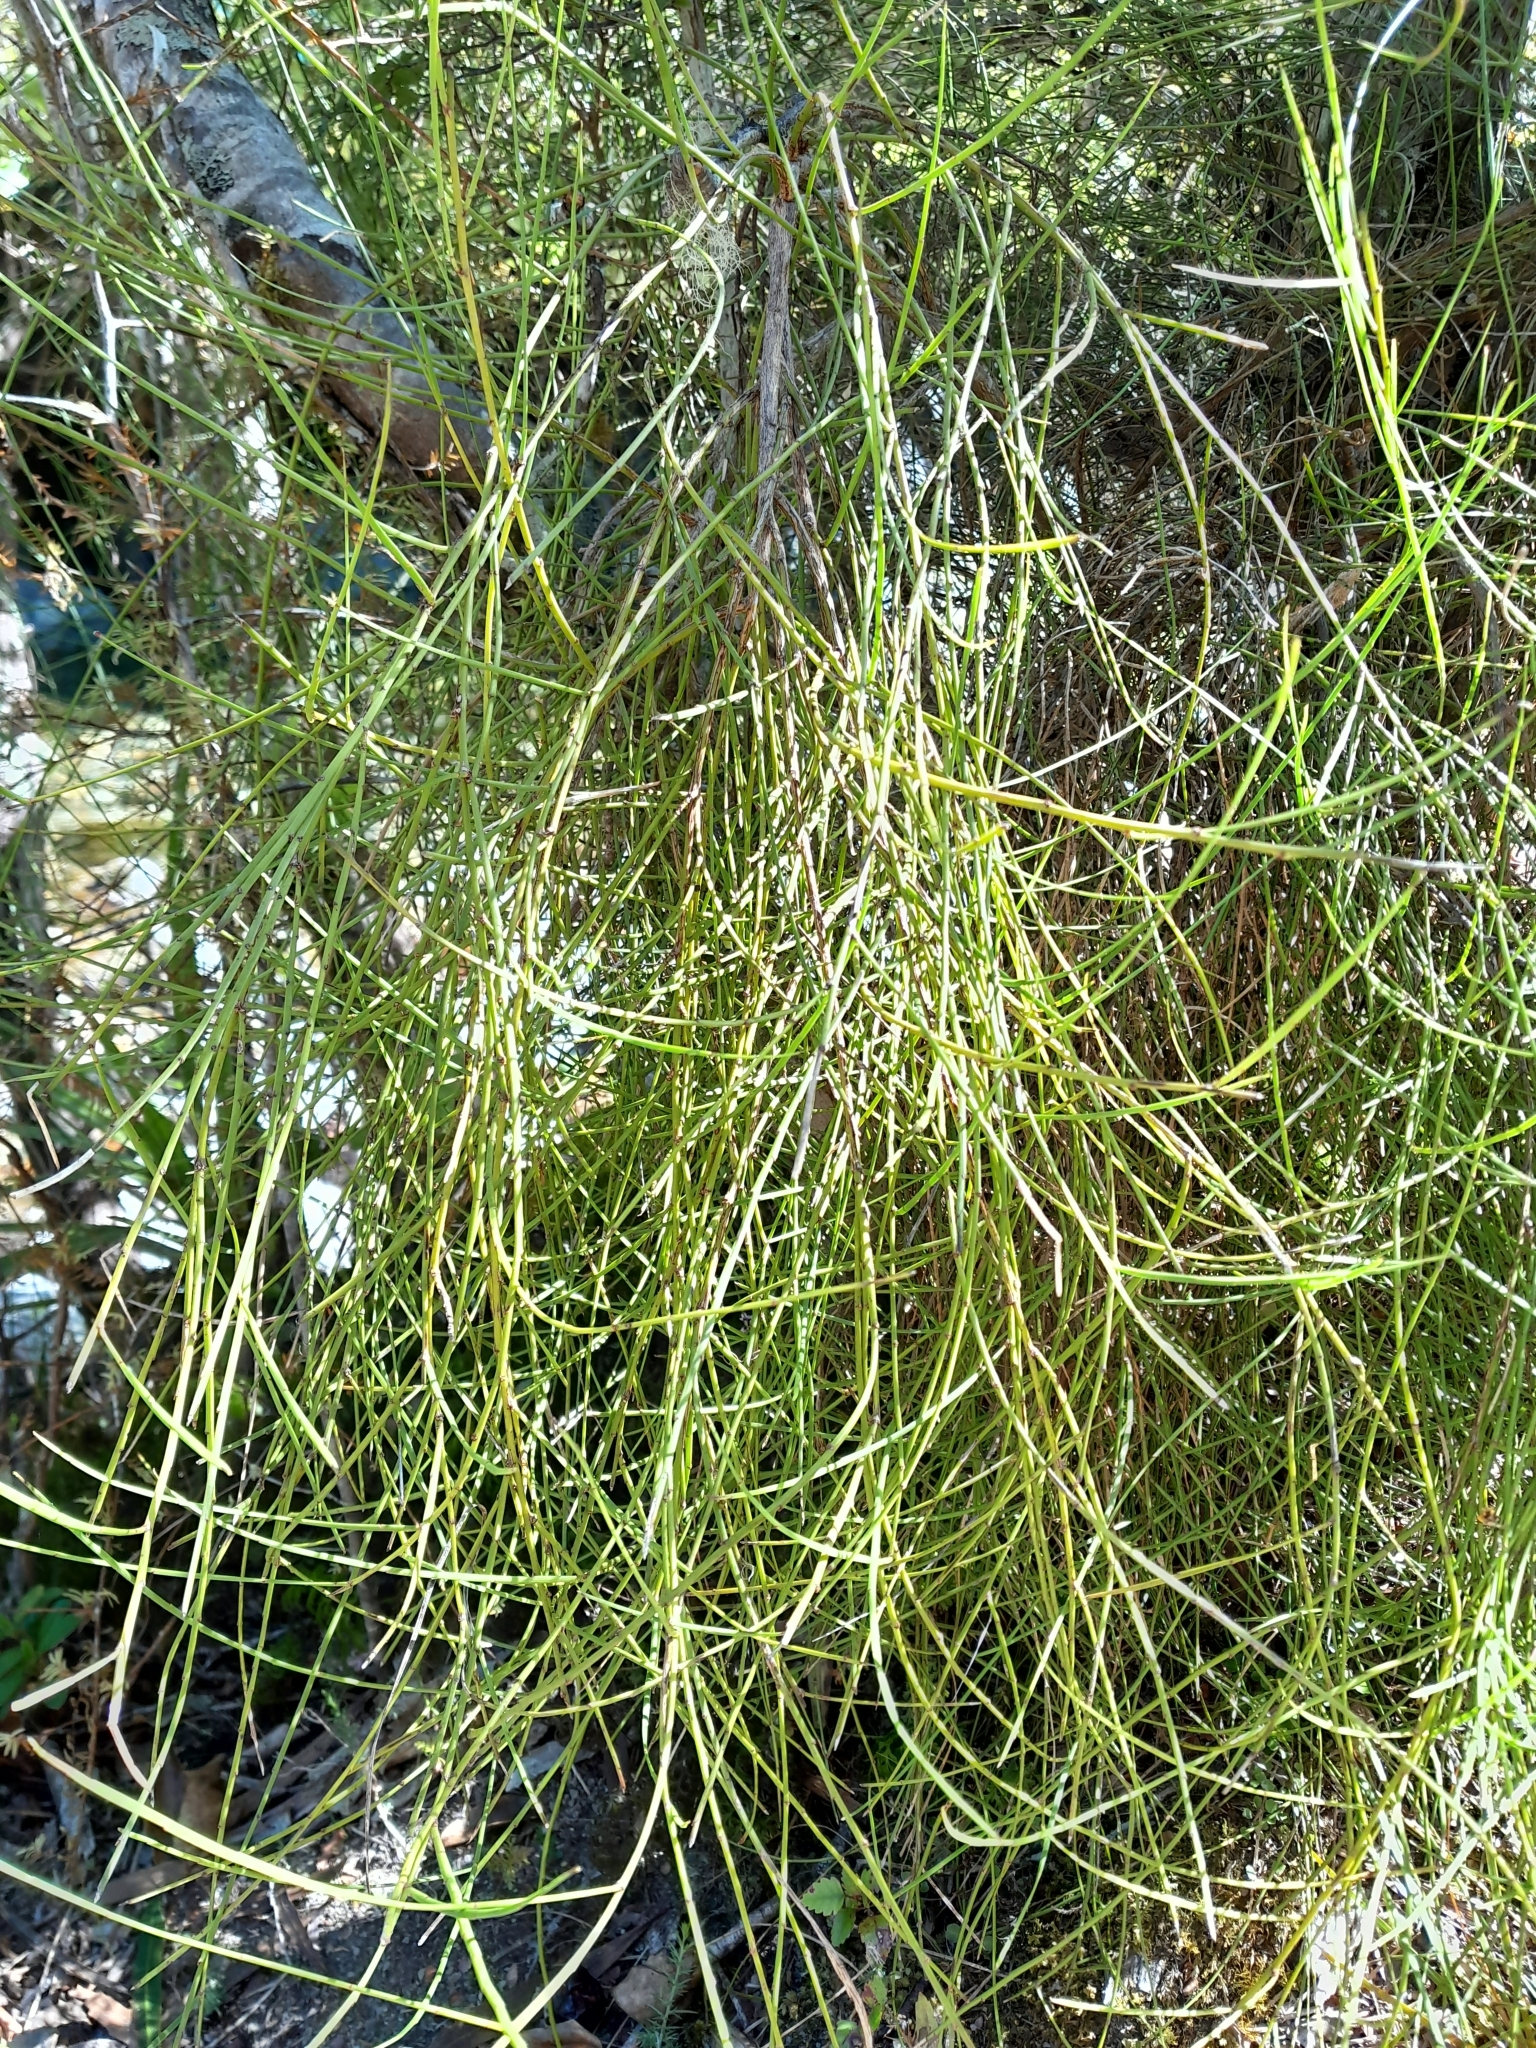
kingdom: Plantae
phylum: Tracheophyta
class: Magnoliopsida
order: Fabales
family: Fabaceae
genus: Carmichaelia
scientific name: Carmichaelia australis
